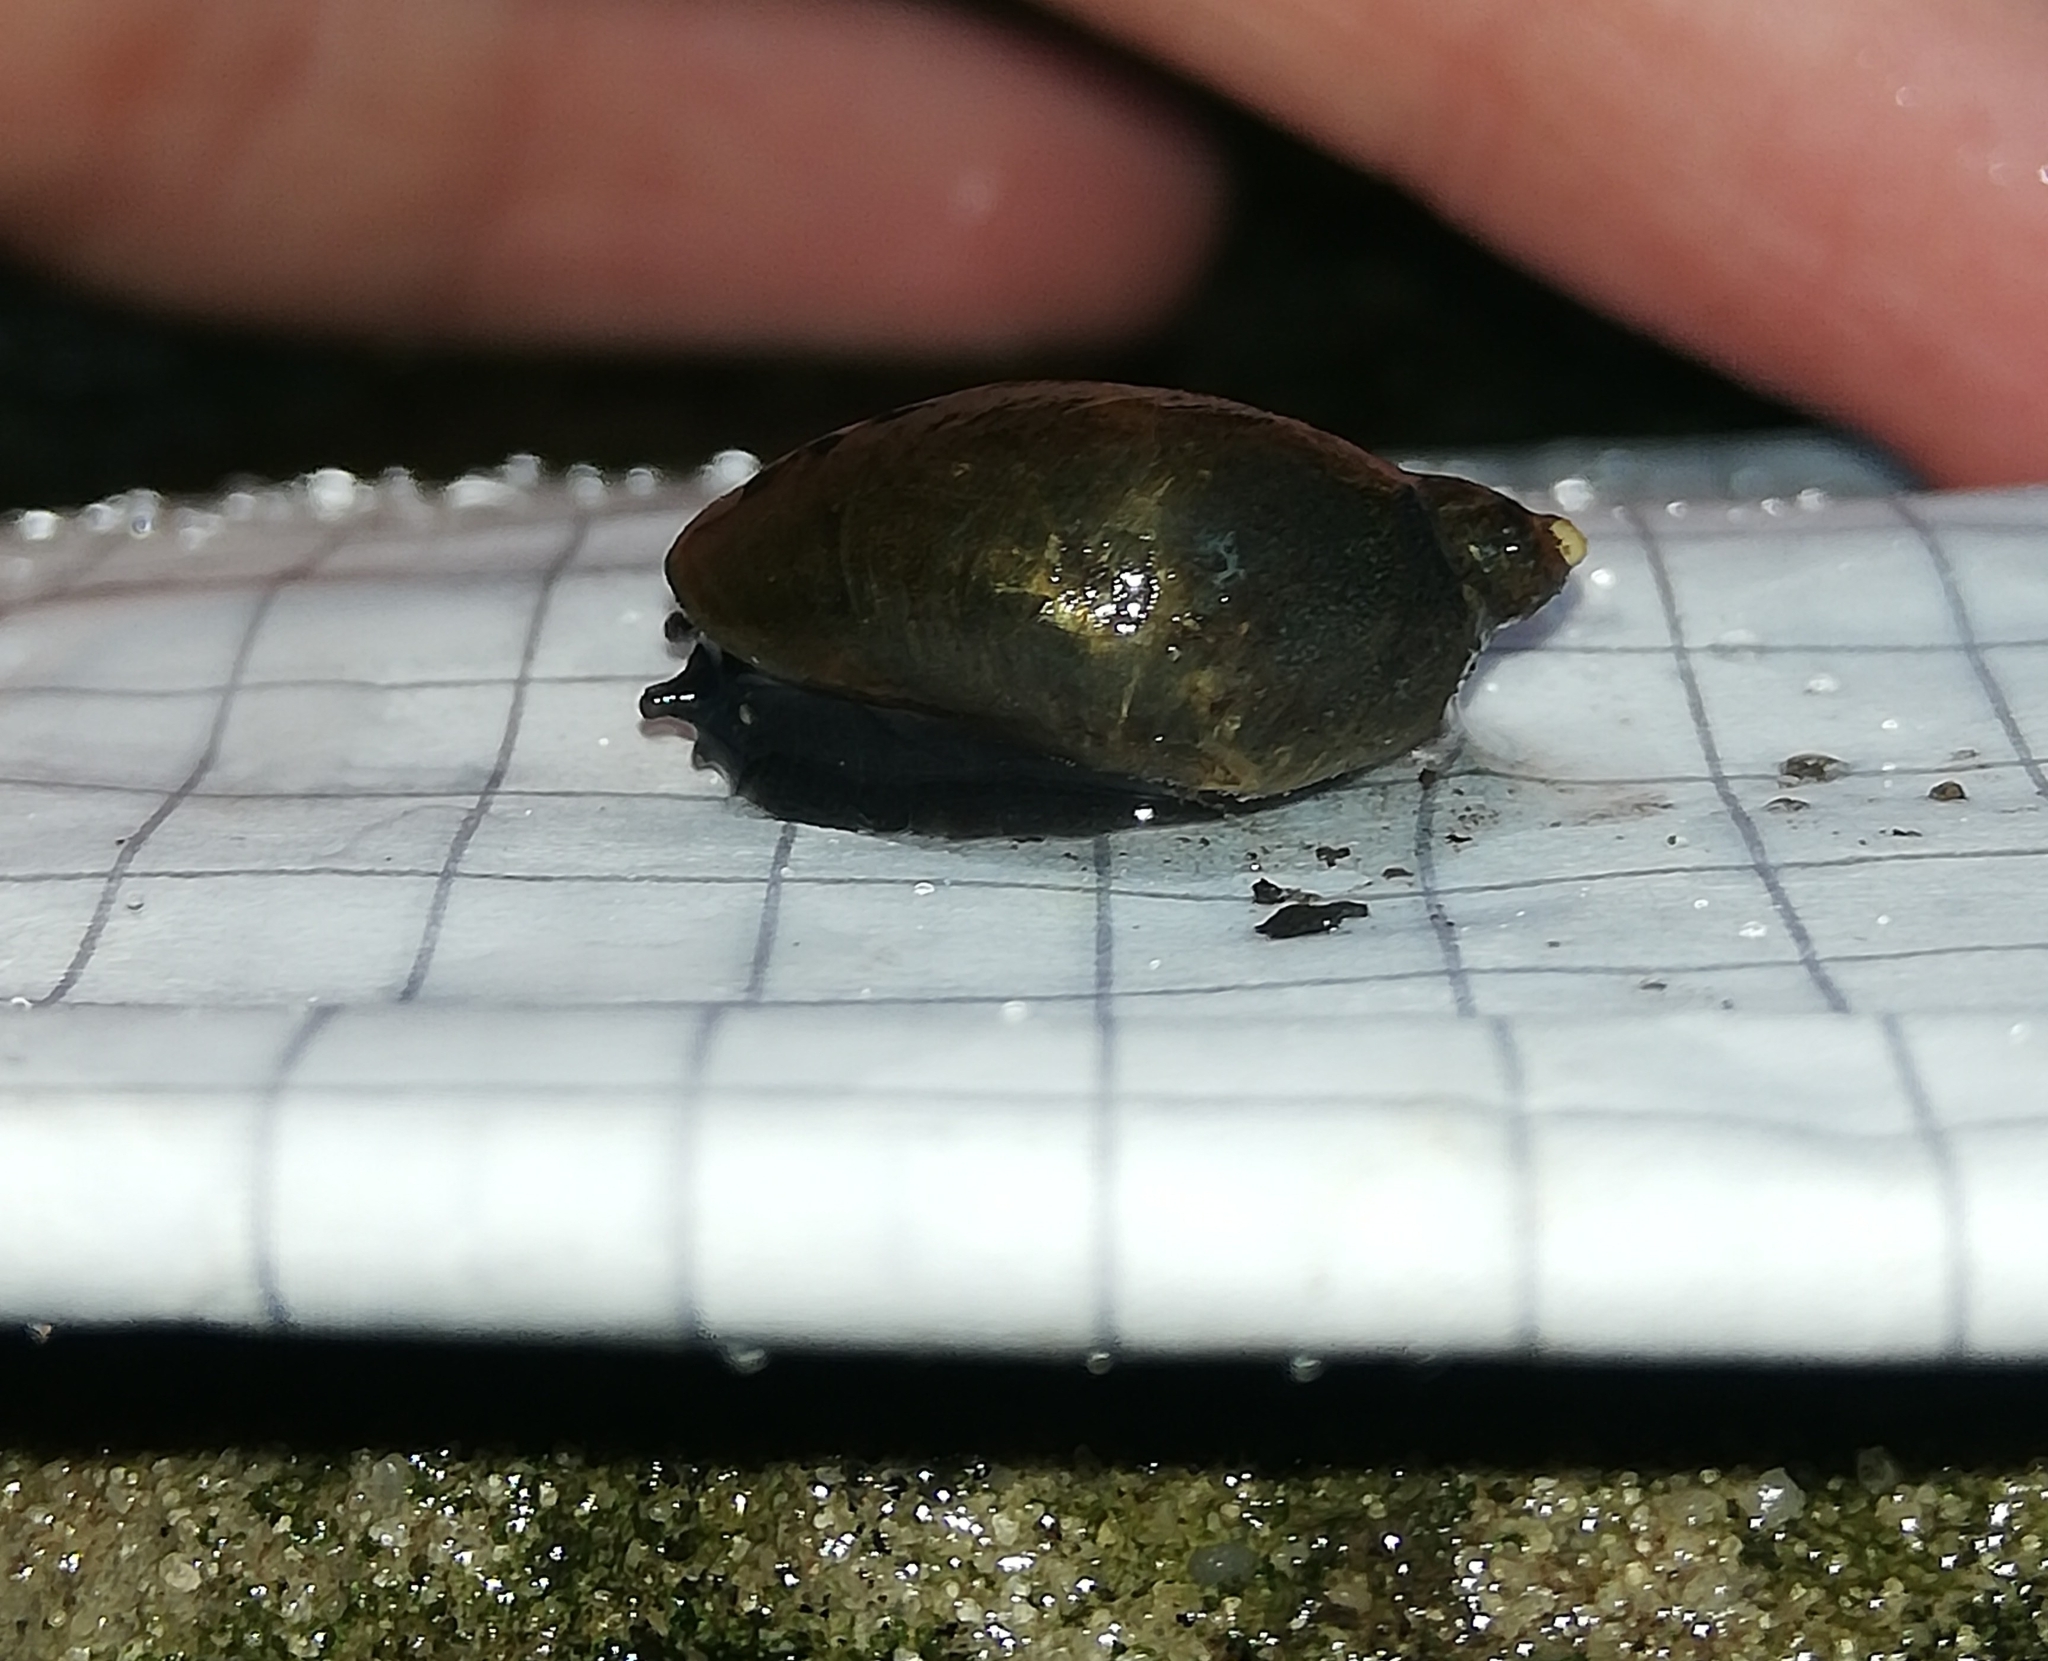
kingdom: Animalia
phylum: Mollusca
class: Gastropoda
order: Stylommatophora
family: Succineidae
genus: Succinea
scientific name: Succinea putris
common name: European ambersnail
